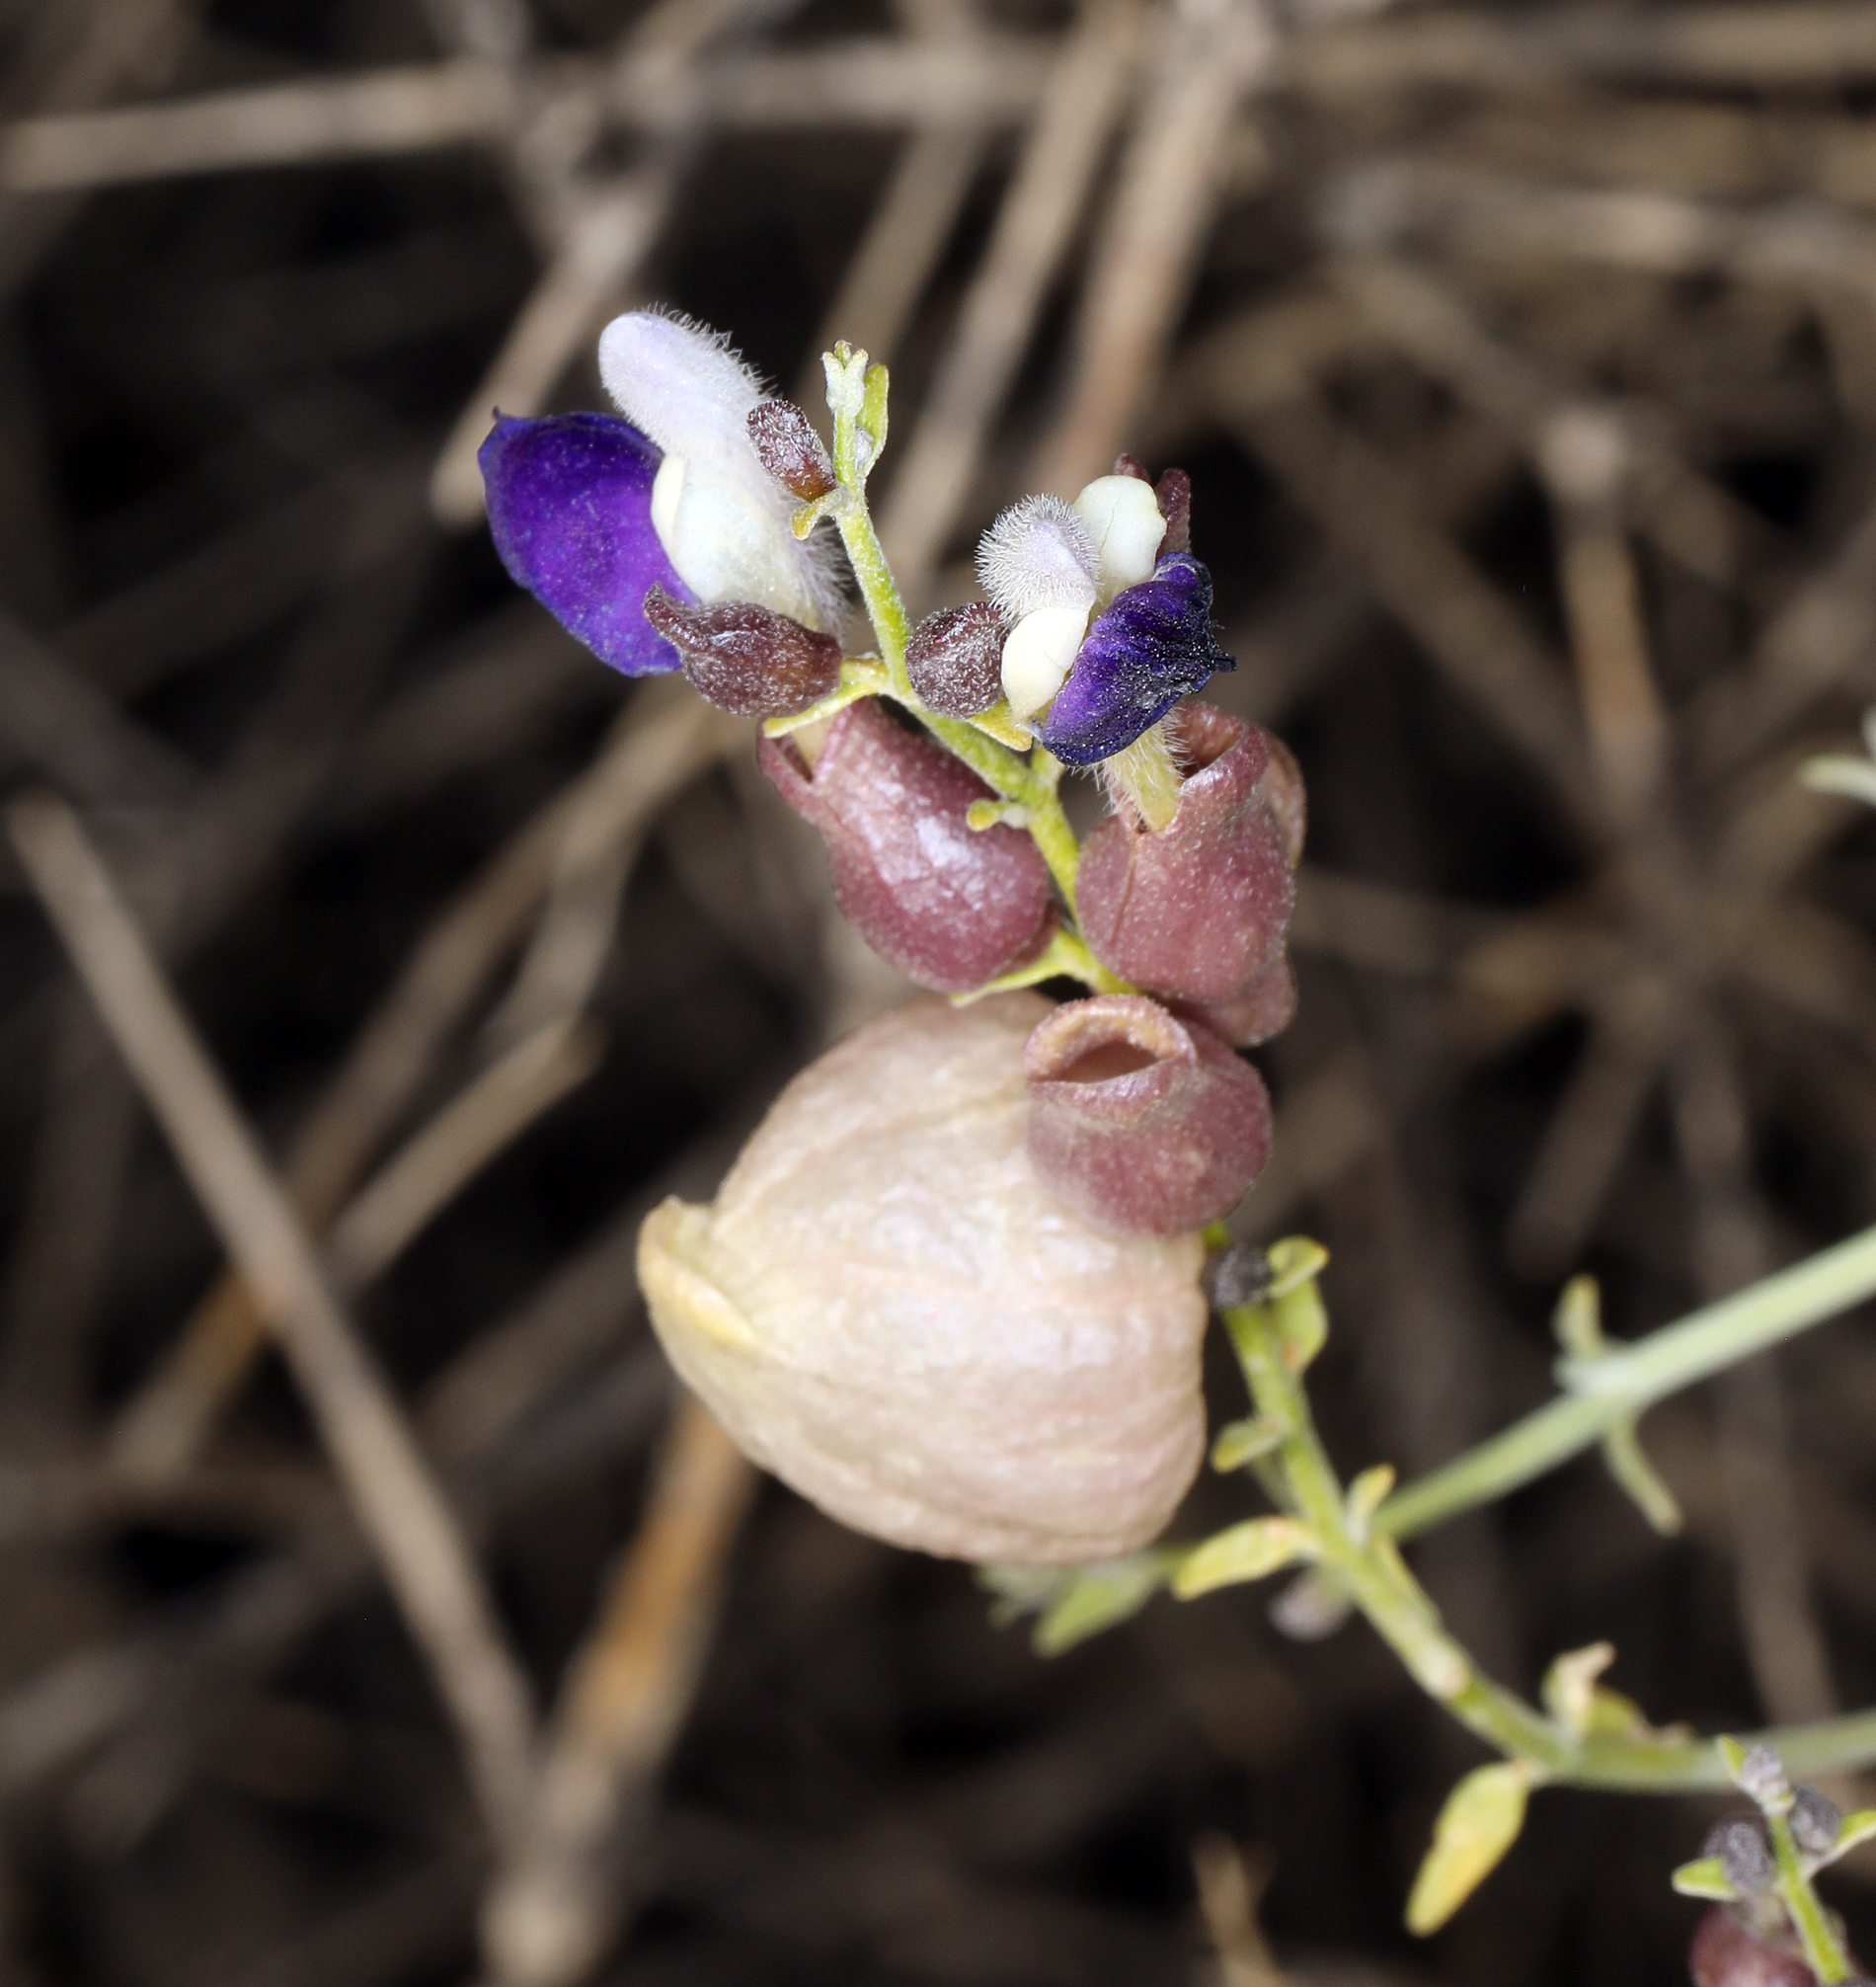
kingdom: Plantae
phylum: Tracheophyta
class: Magnoliopsida
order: Lamiales
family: Lamiaceae
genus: Scutellaria
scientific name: Scutellaria mexicana
